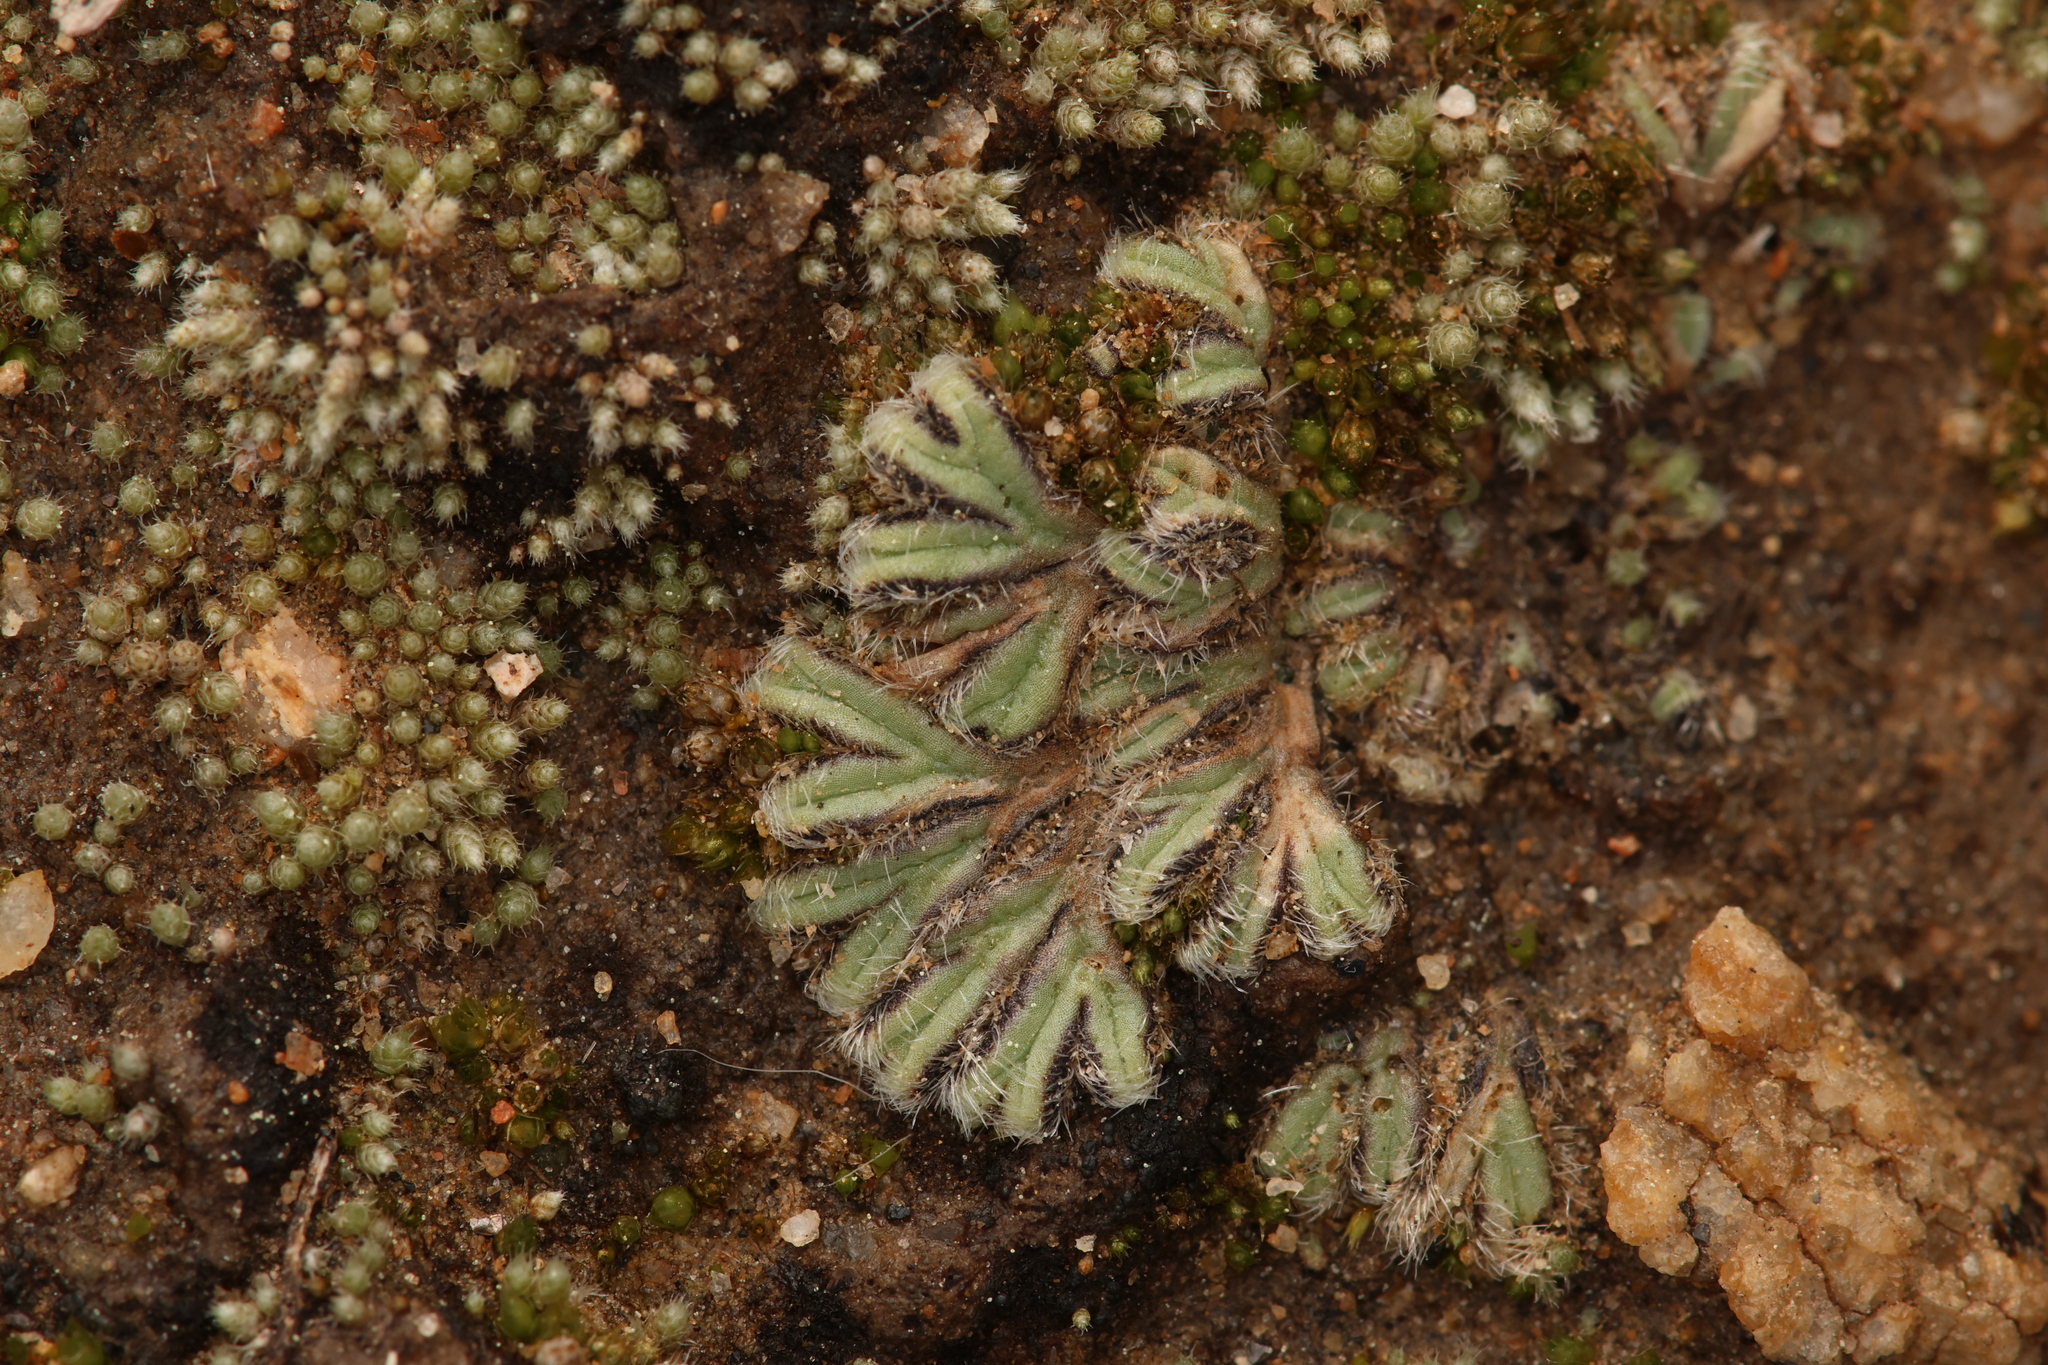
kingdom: Plantae
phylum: Marchantiophyta
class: Marchantiopsida
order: Marchantiales
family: Ricciaceae
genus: Riccia
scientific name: Riccia trichocarpa
